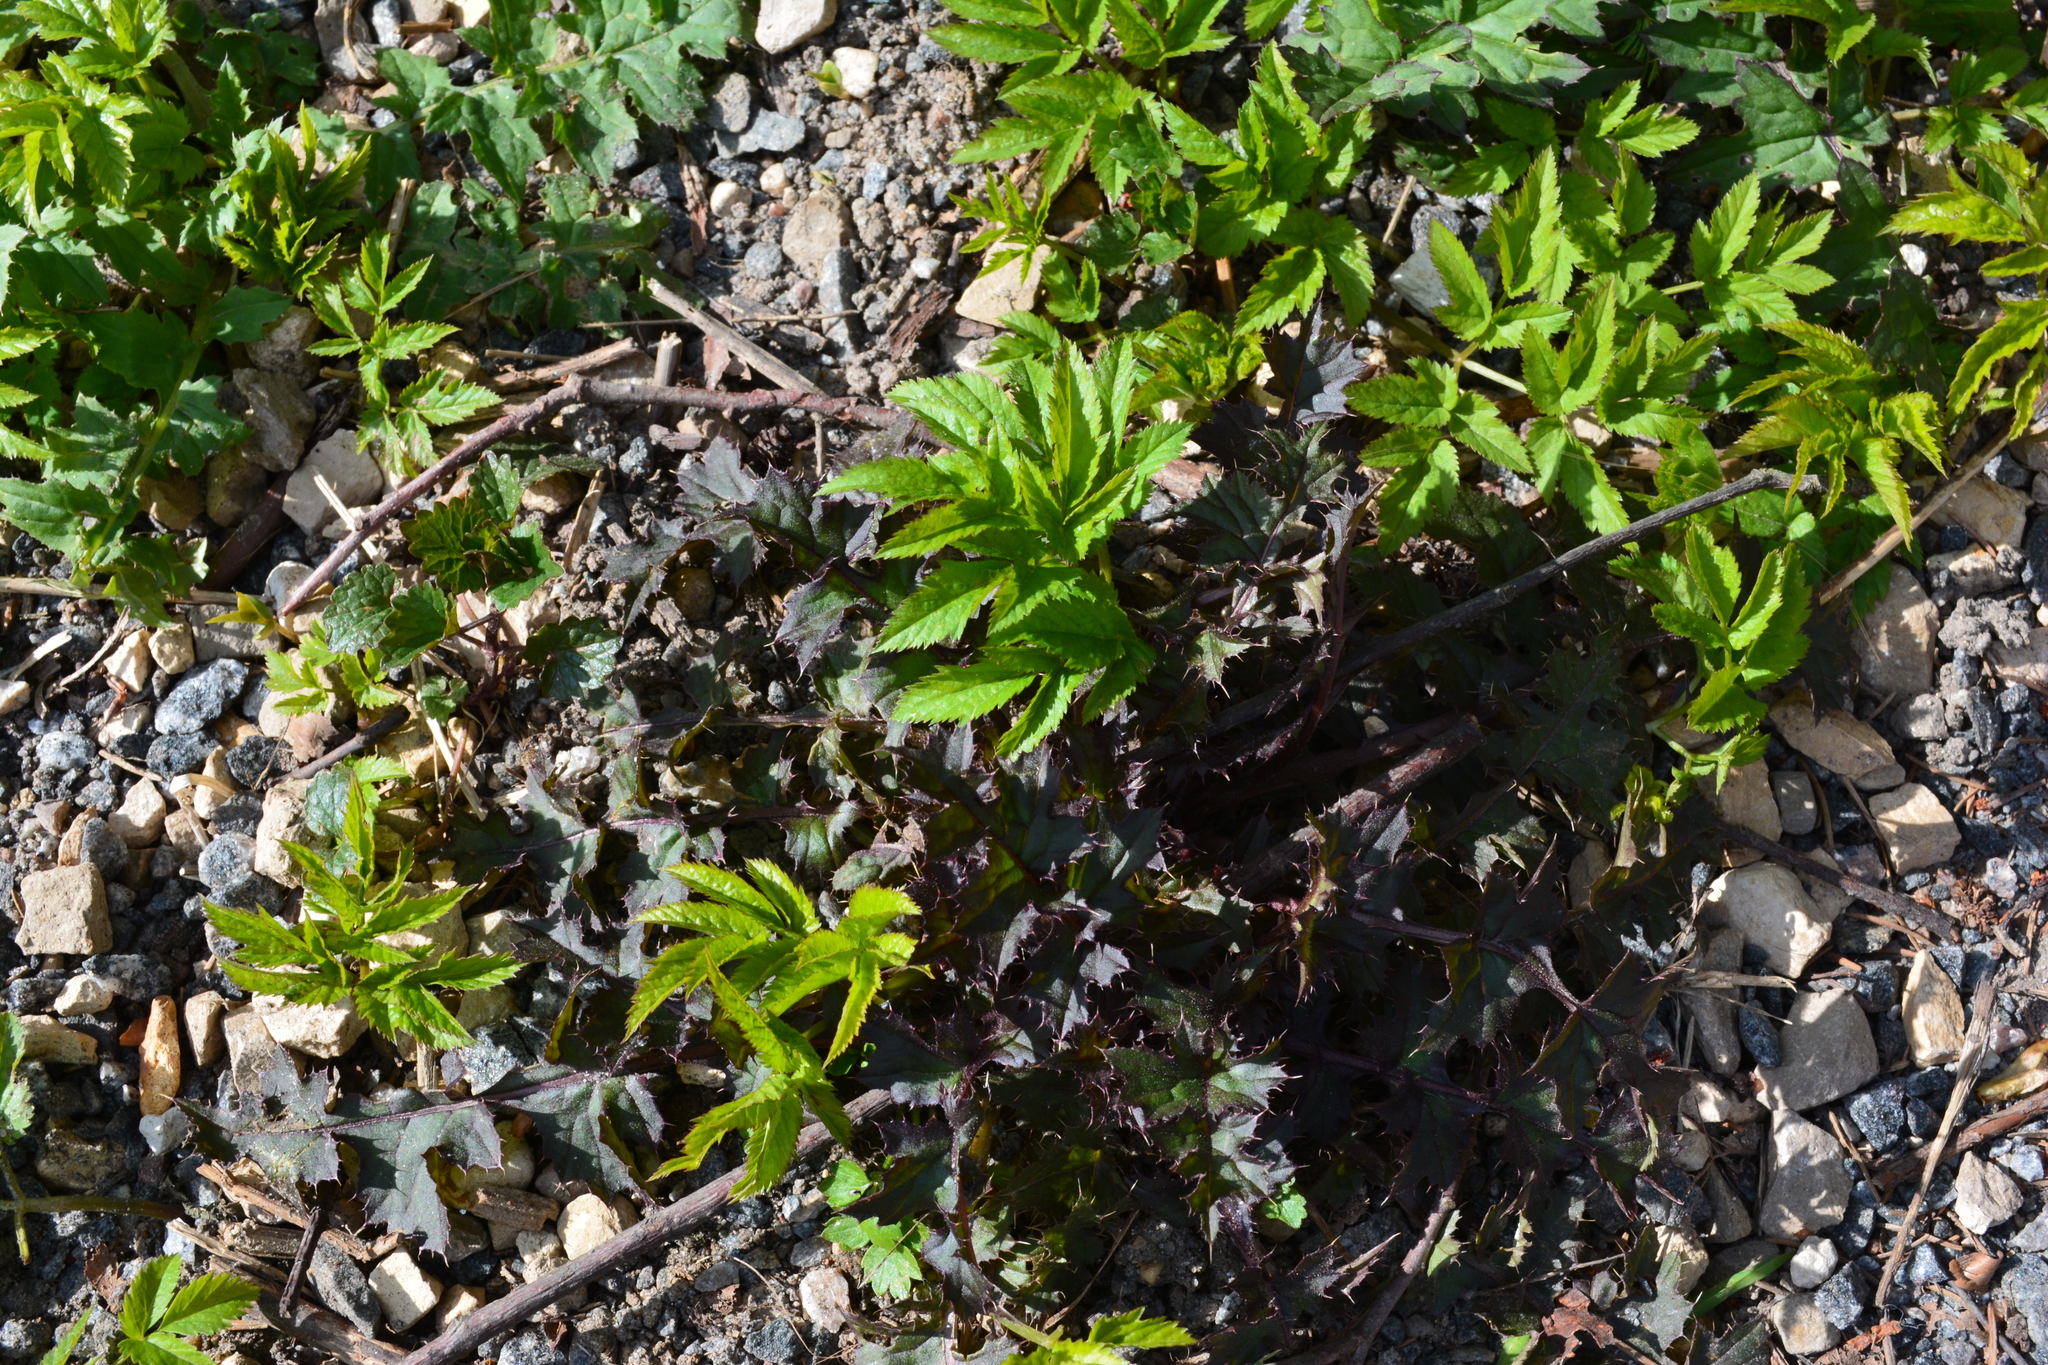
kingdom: Plantae
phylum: Tracheophyta
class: Magnoliopsida
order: Apiales
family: Apiaceae
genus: Aegopodium
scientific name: Aegopodium podagraria
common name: Ground-elder
